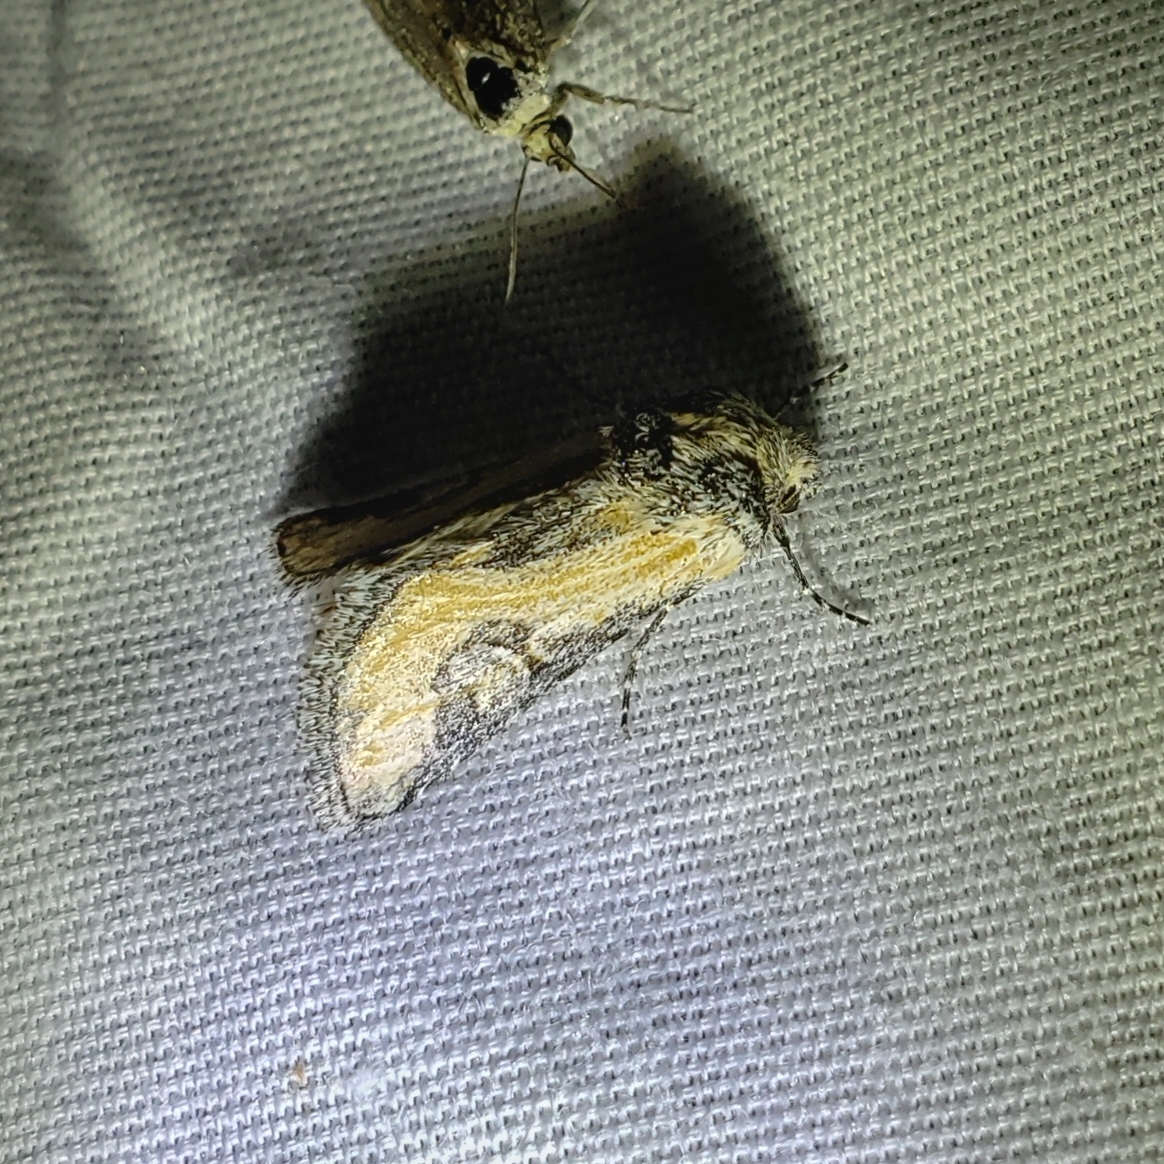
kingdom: Animalia
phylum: Arthropoda
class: Insecta
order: Lepidoptera
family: Noctuidae
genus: Crimona
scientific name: Crimona pallimedia
